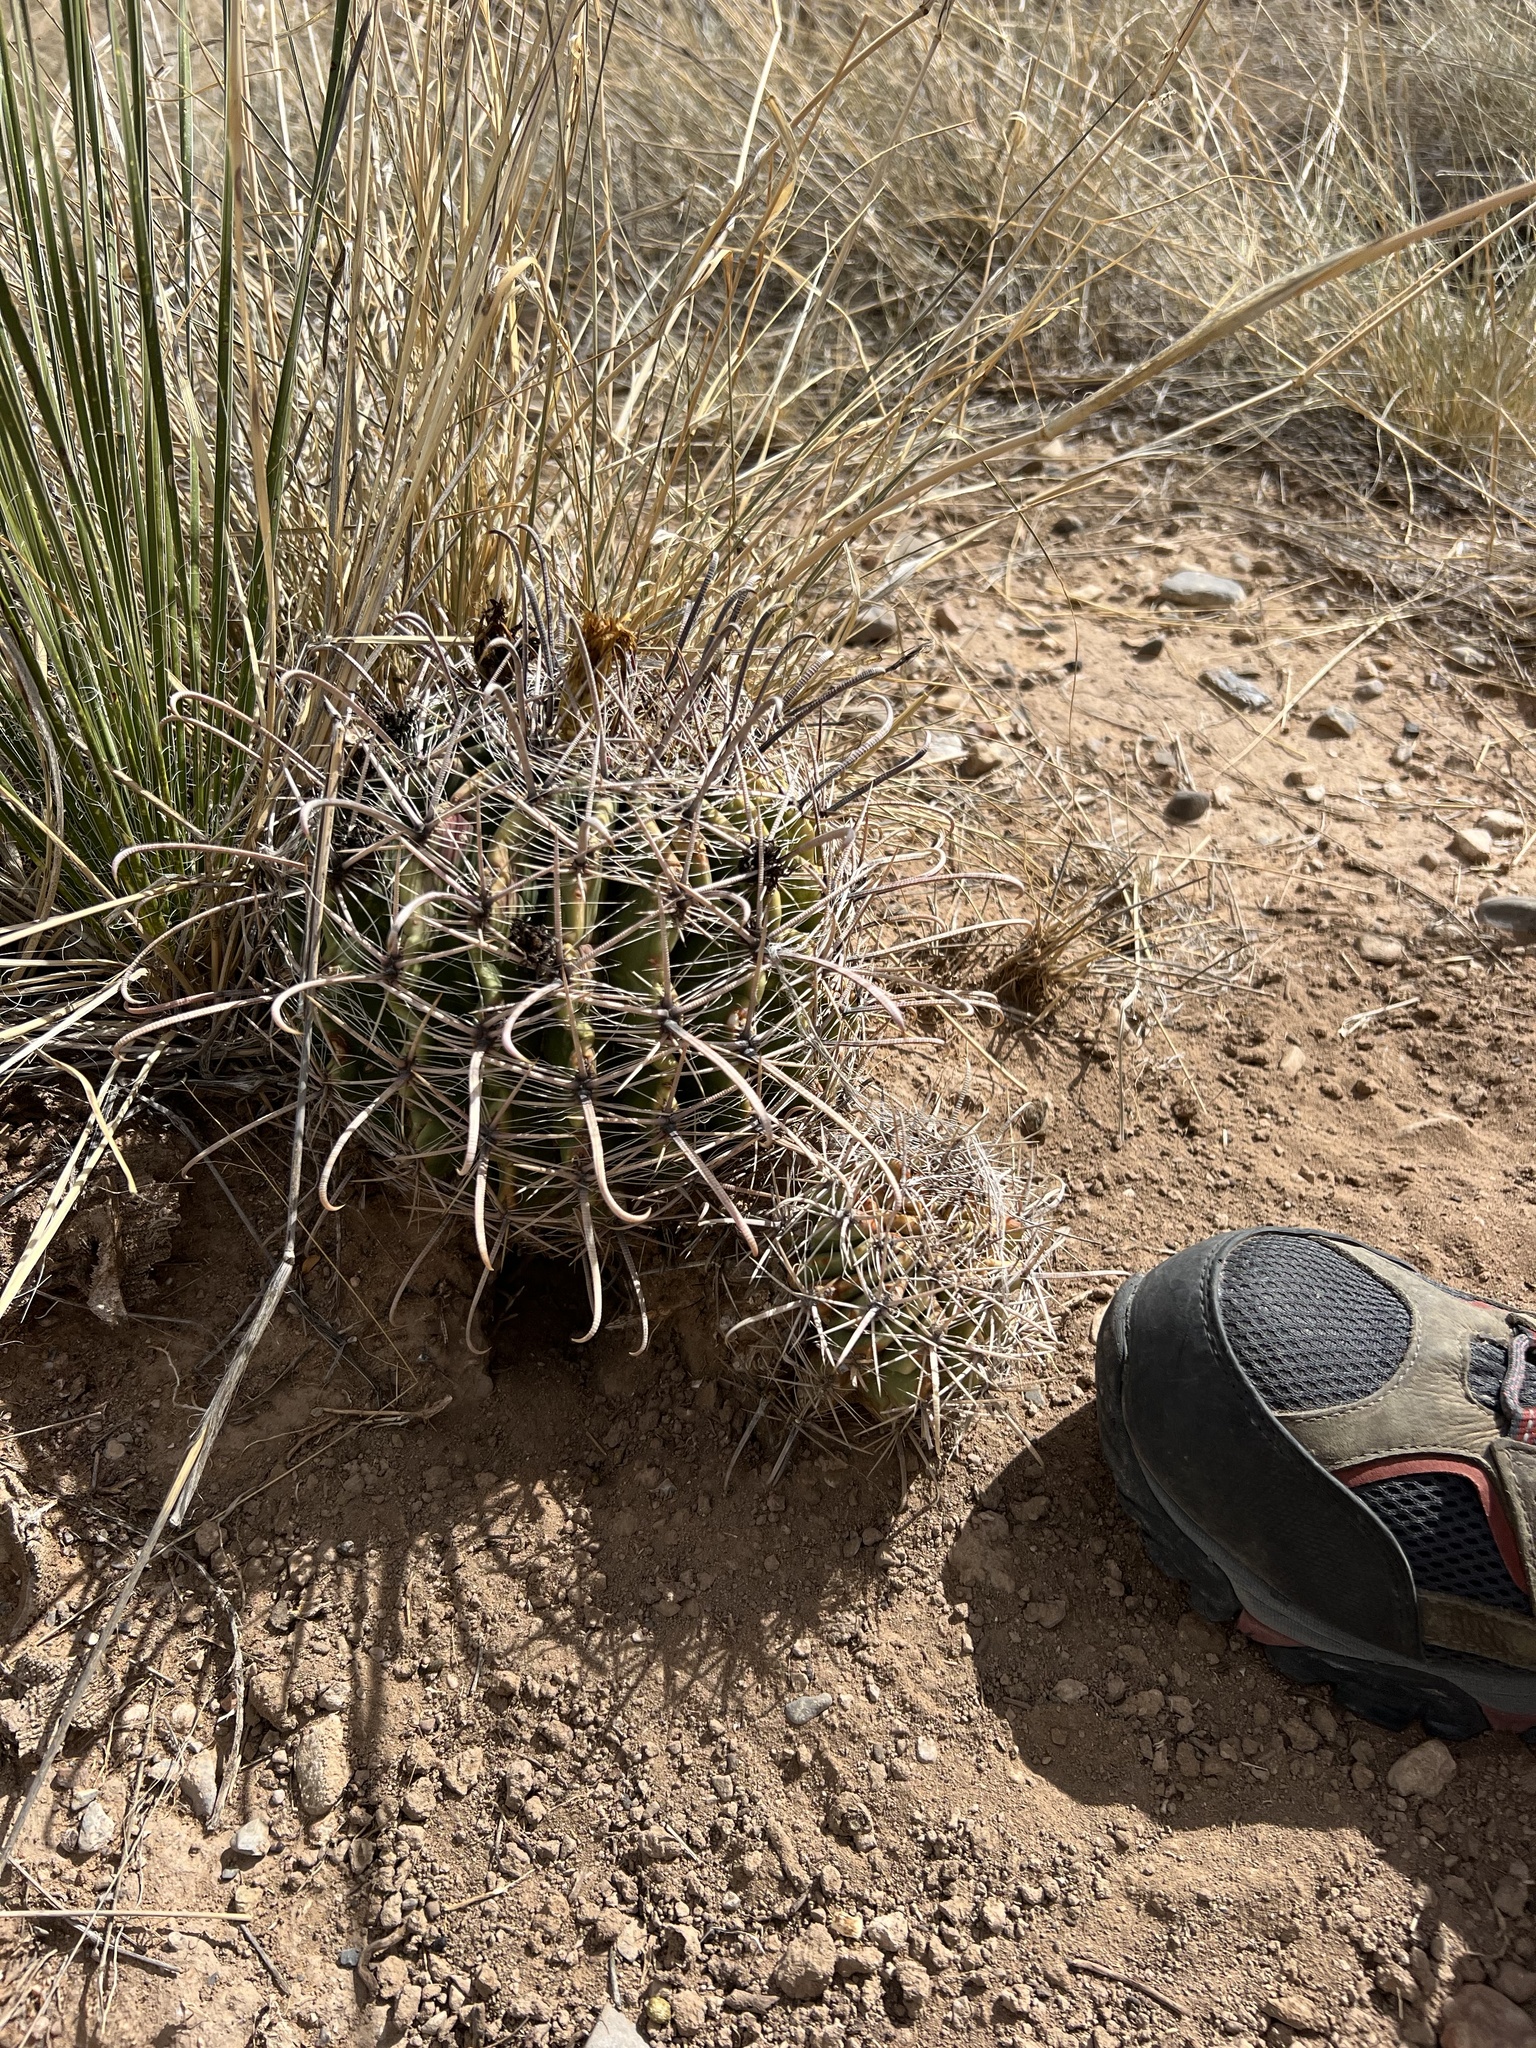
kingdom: Plantae
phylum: Tracheophyta
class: Magnoliopsida
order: Caryophyllales
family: Cactaceae
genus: Ferocactus
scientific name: Ferocactus wislizeni
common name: Candy barrel cactus
